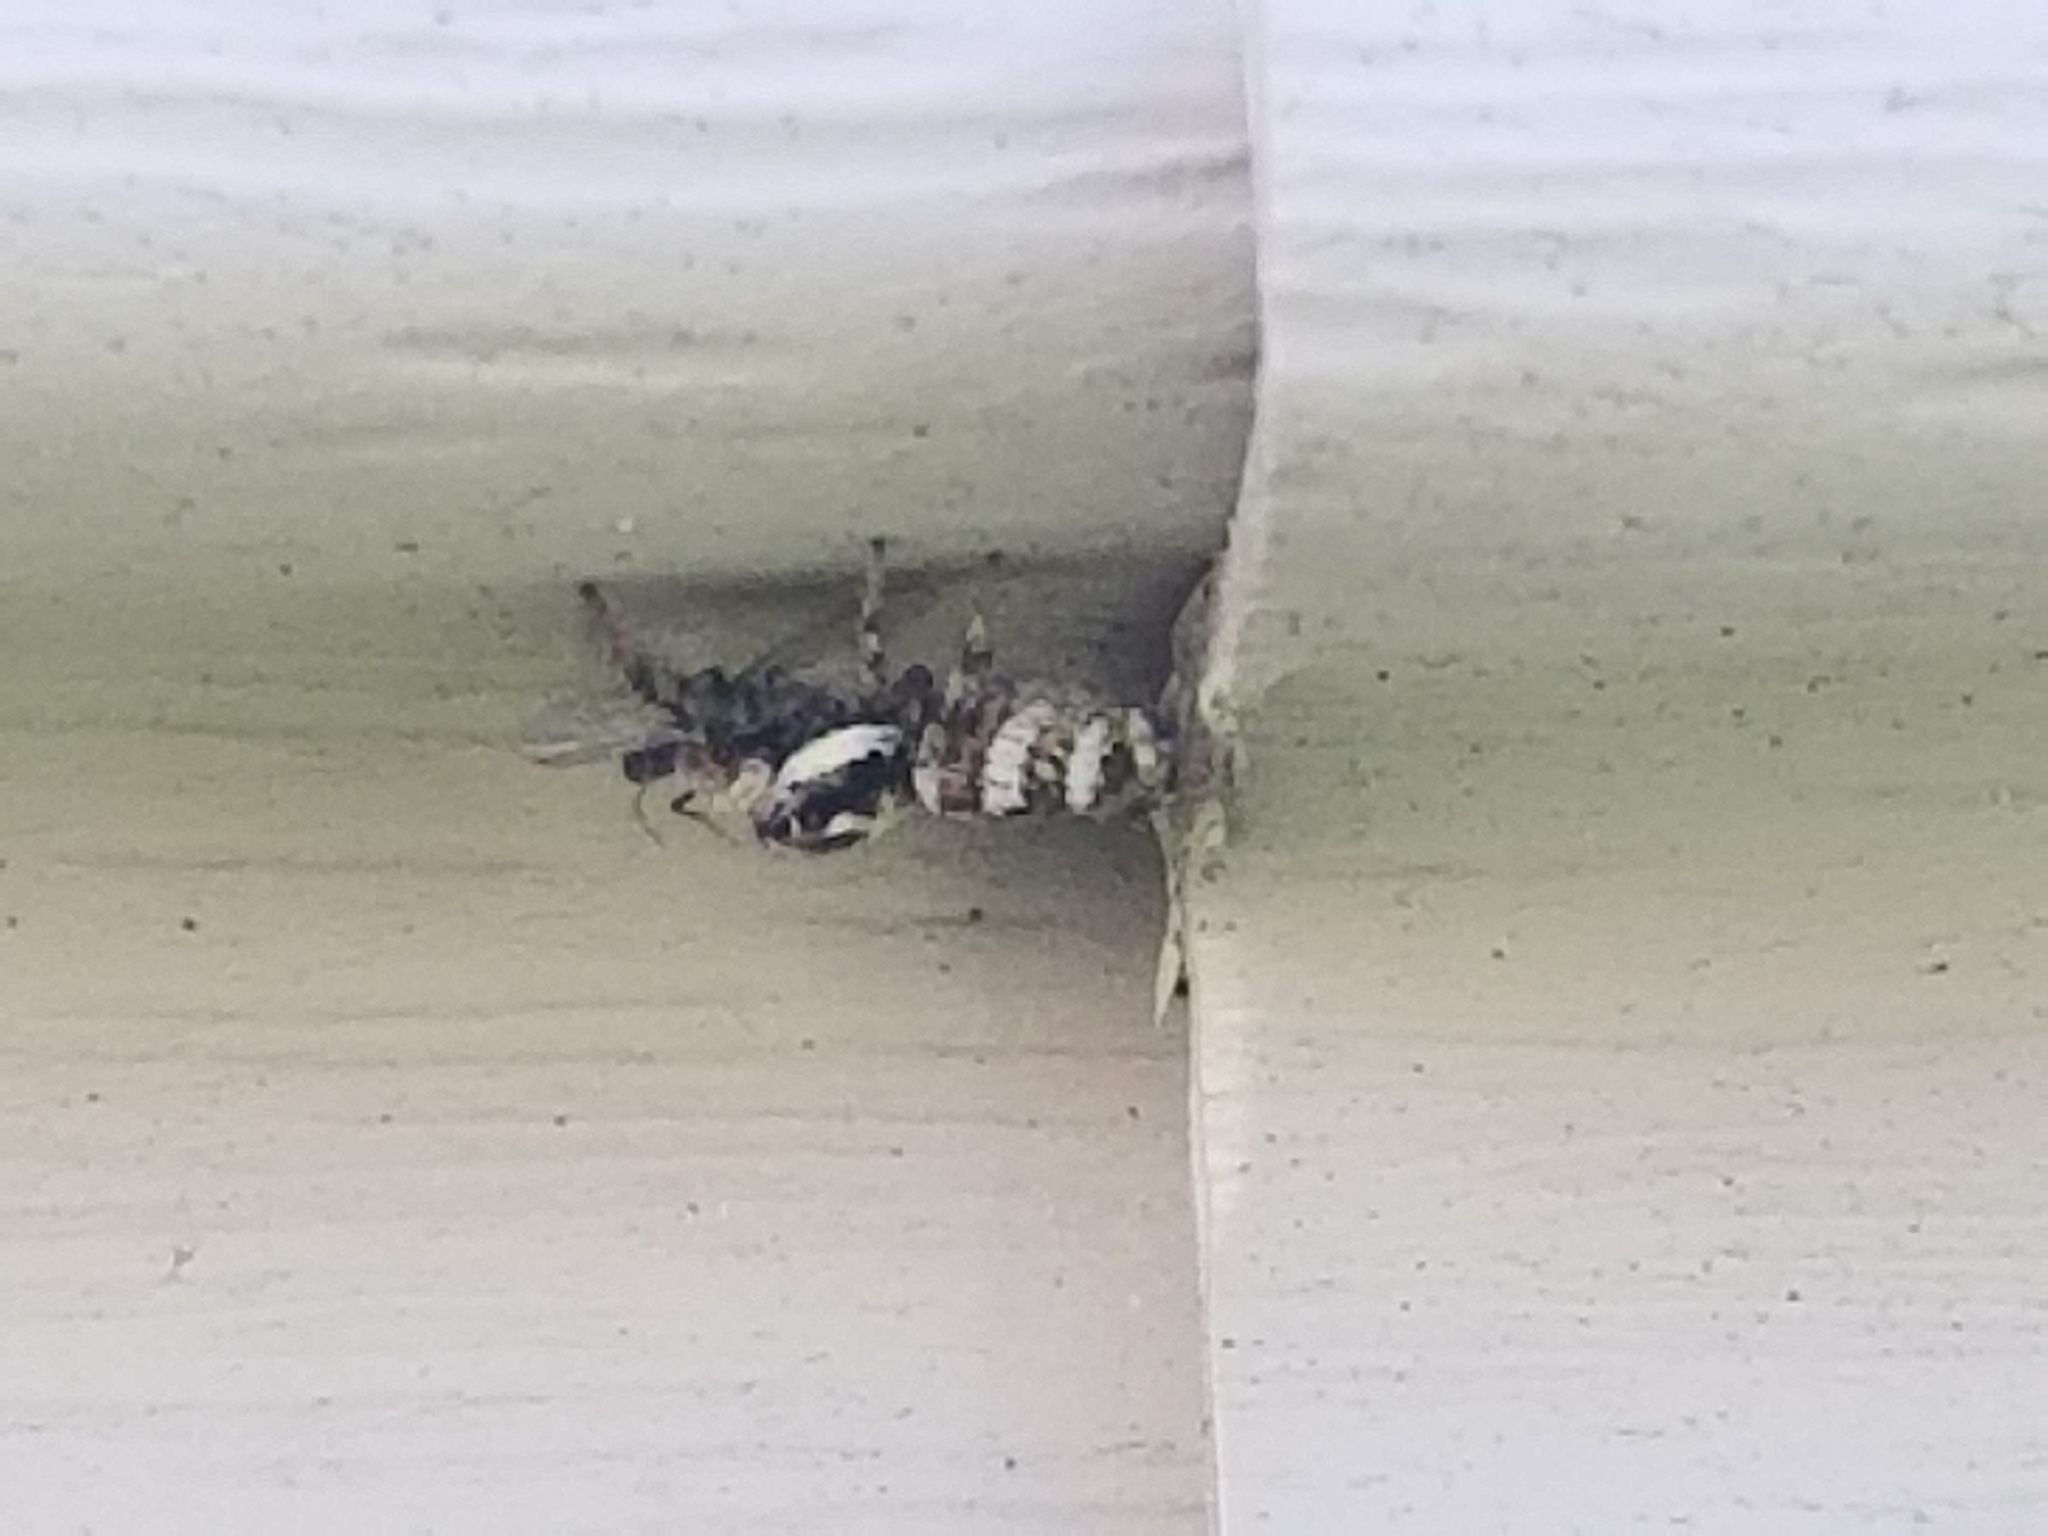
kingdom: Animalia
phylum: Arthropoda
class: Arachnida
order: Araneae
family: Salticidae
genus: Salticus
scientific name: Salticus scenicus
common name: Zebra jumper
